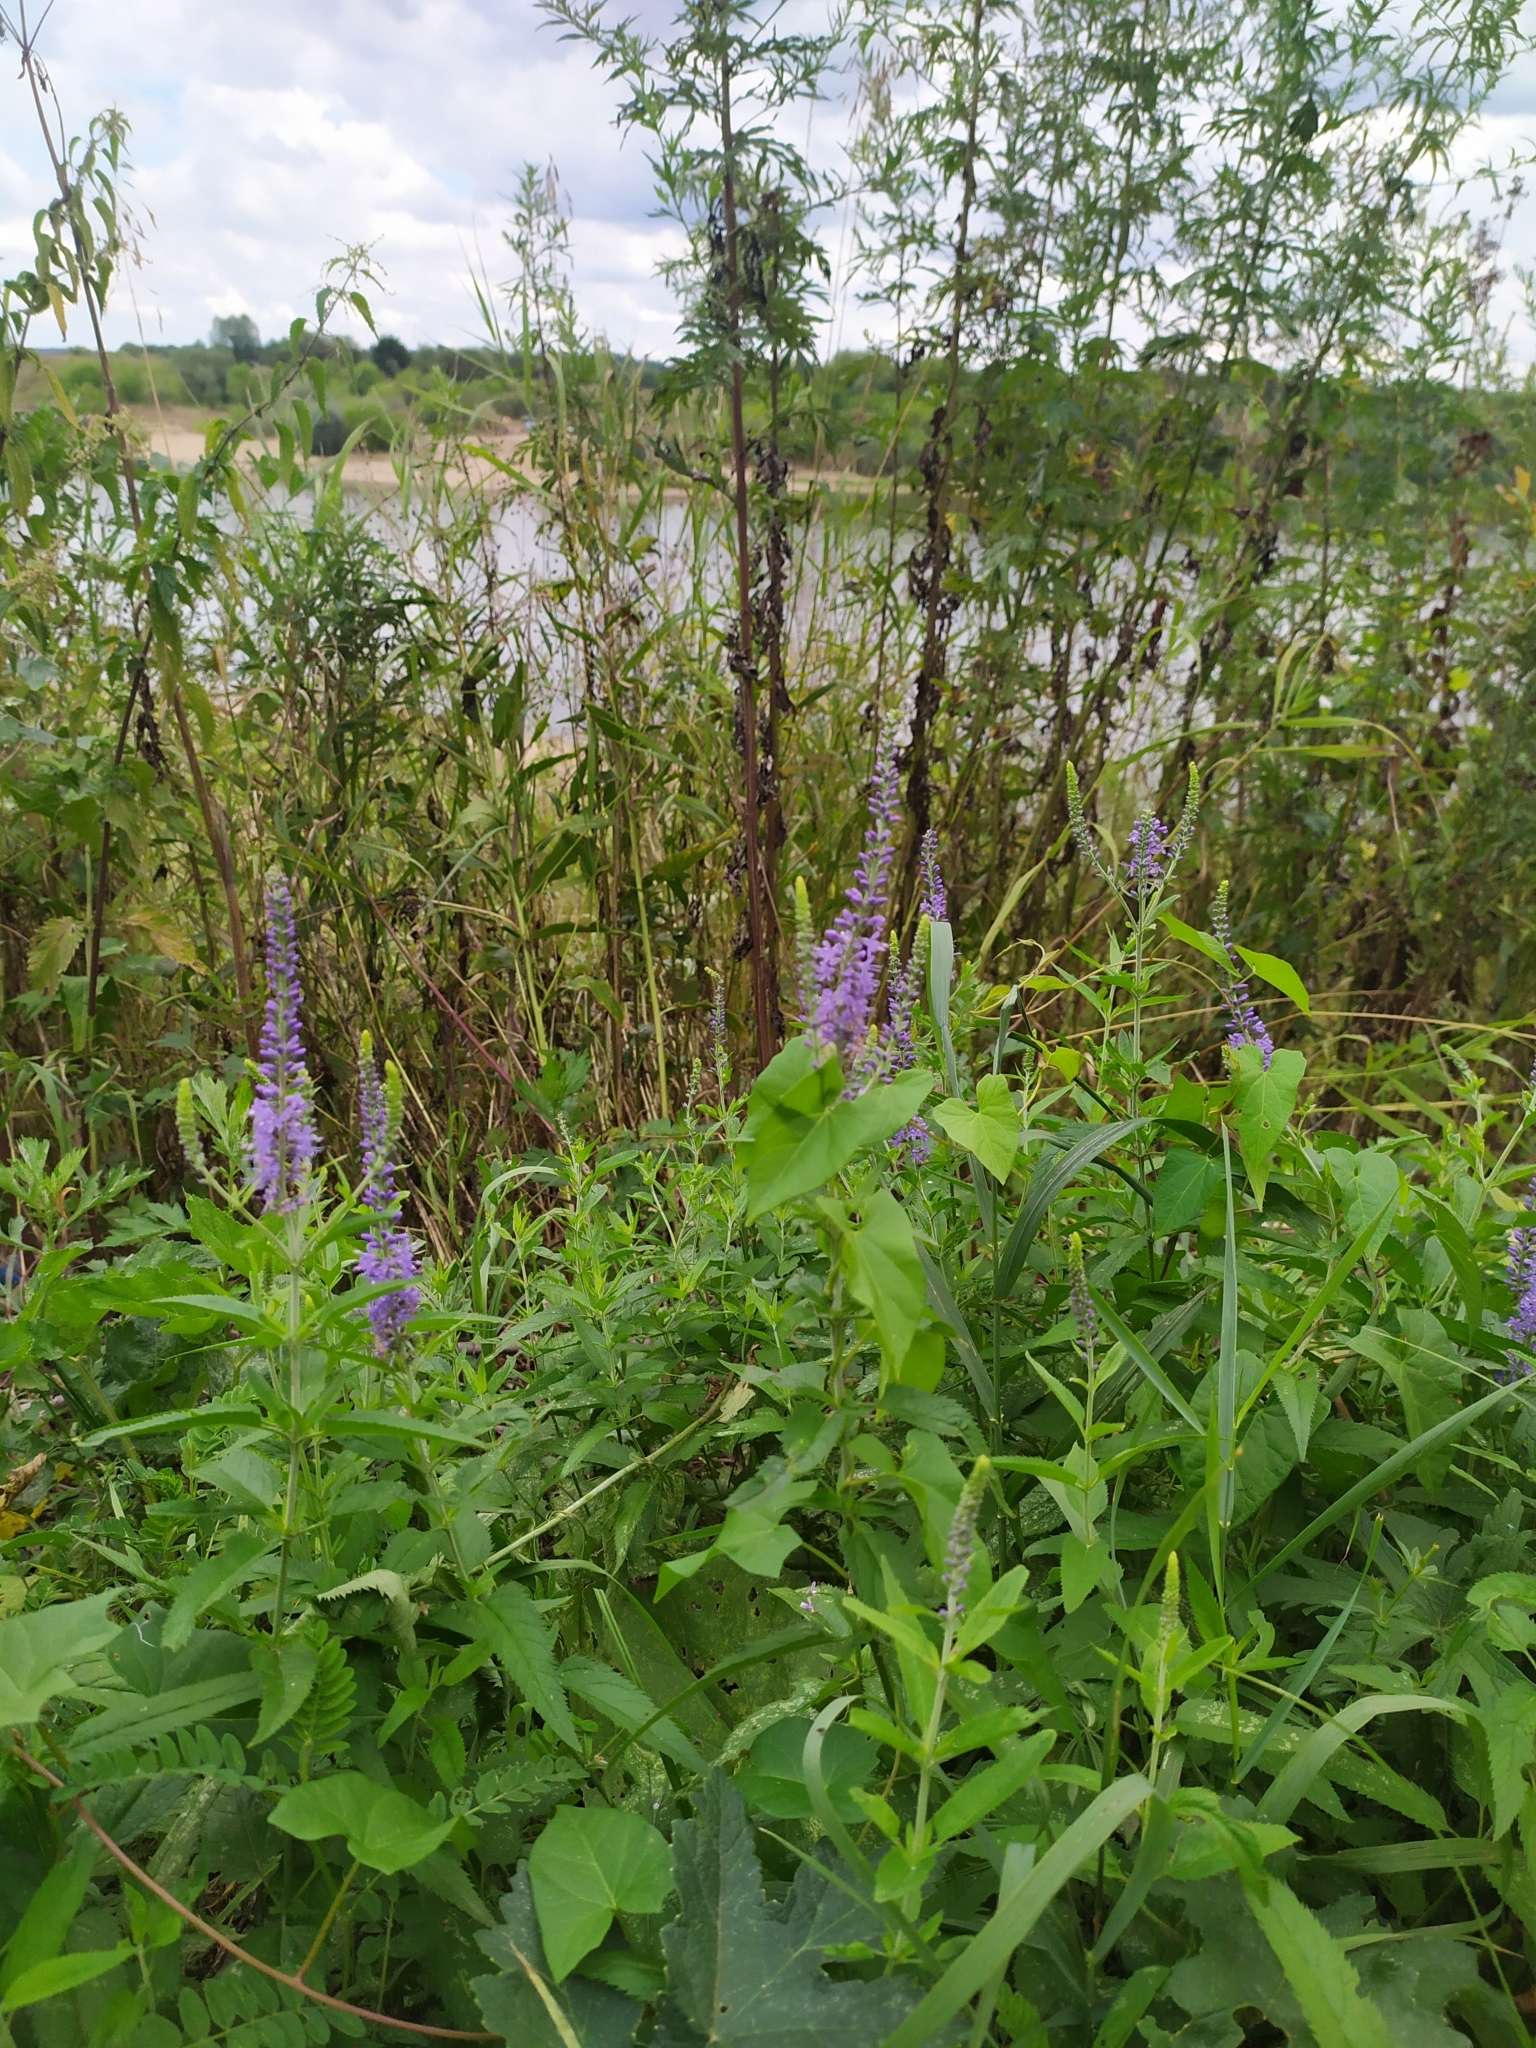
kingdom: Plantae
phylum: Tracheophyta
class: Magnoliopsida
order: Lamiales
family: Plantaginaceae
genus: Veronica
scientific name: Veronica longifolia
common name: Garden speedwell
